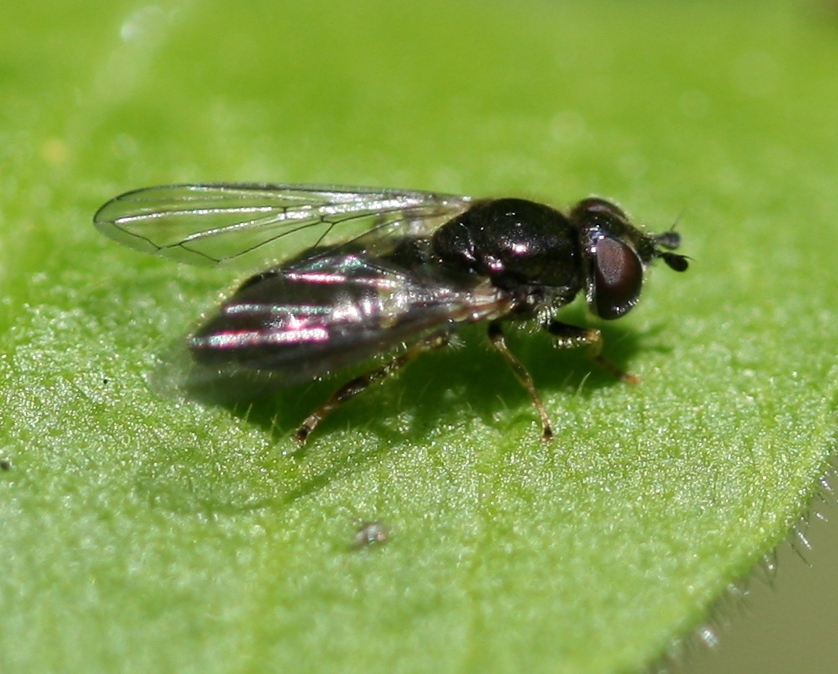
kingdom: Animalia
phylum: Arthropoda
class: Insecta
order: Diptera
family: Syrphidae
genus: Pipiza
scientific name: Pipiza luteitarsis
